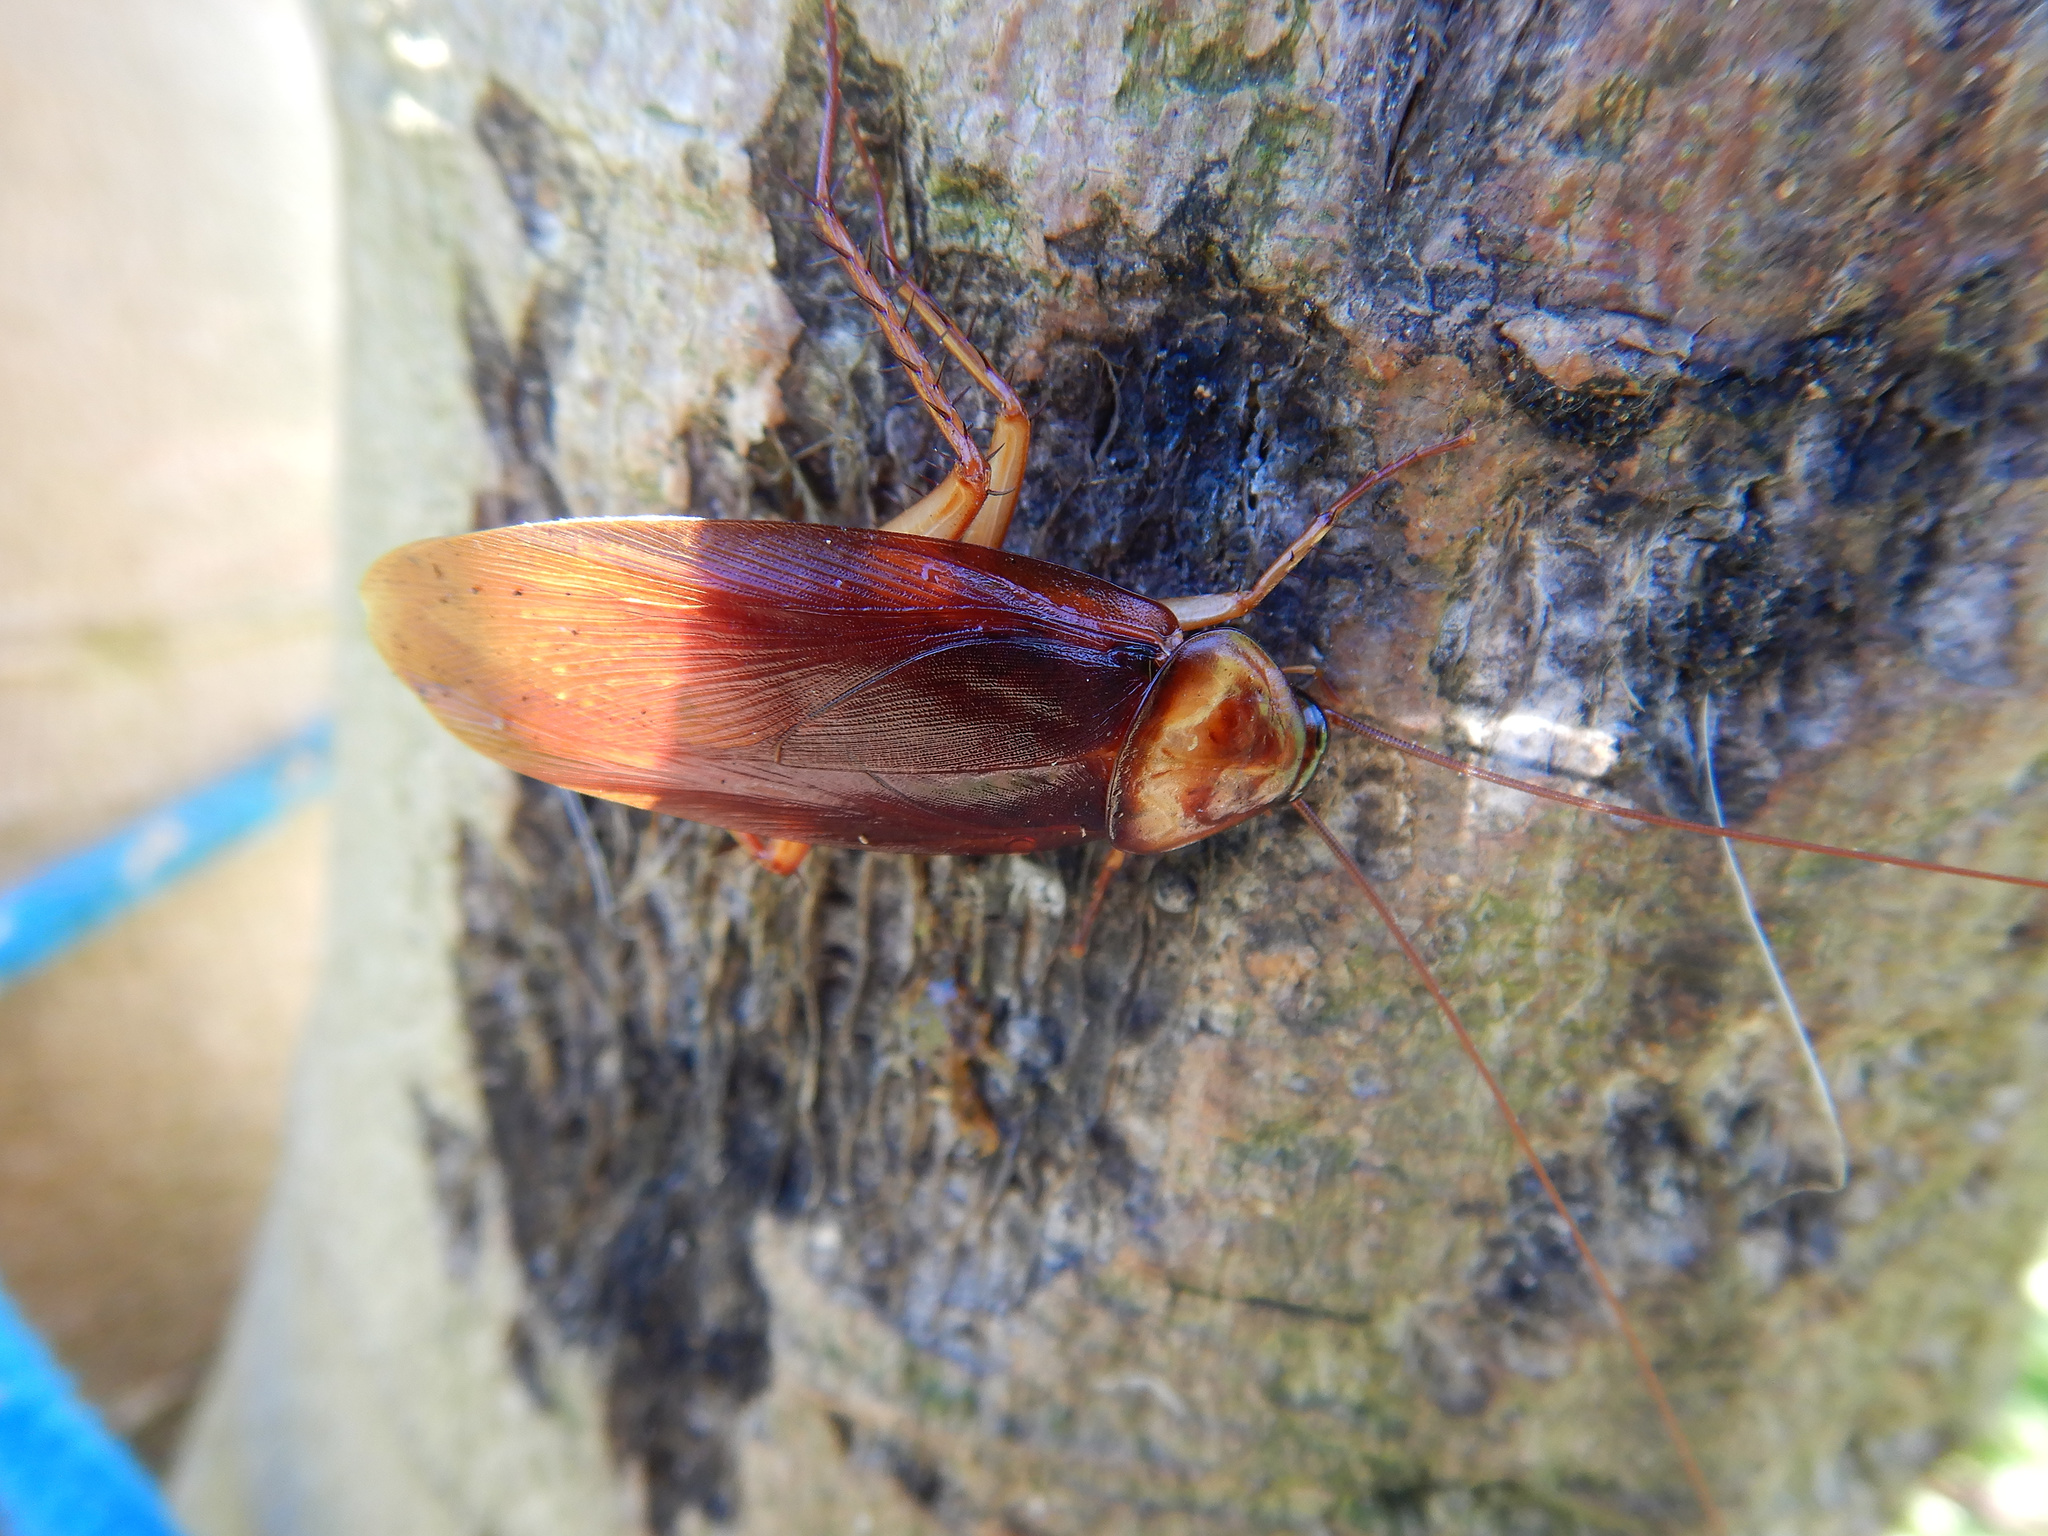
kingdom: Animalia
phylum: Arthropoda
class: Insecta
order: Blattodea
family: Blattidae
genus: Periplaneta
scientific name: Periplaneta americana
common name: American cockroach
